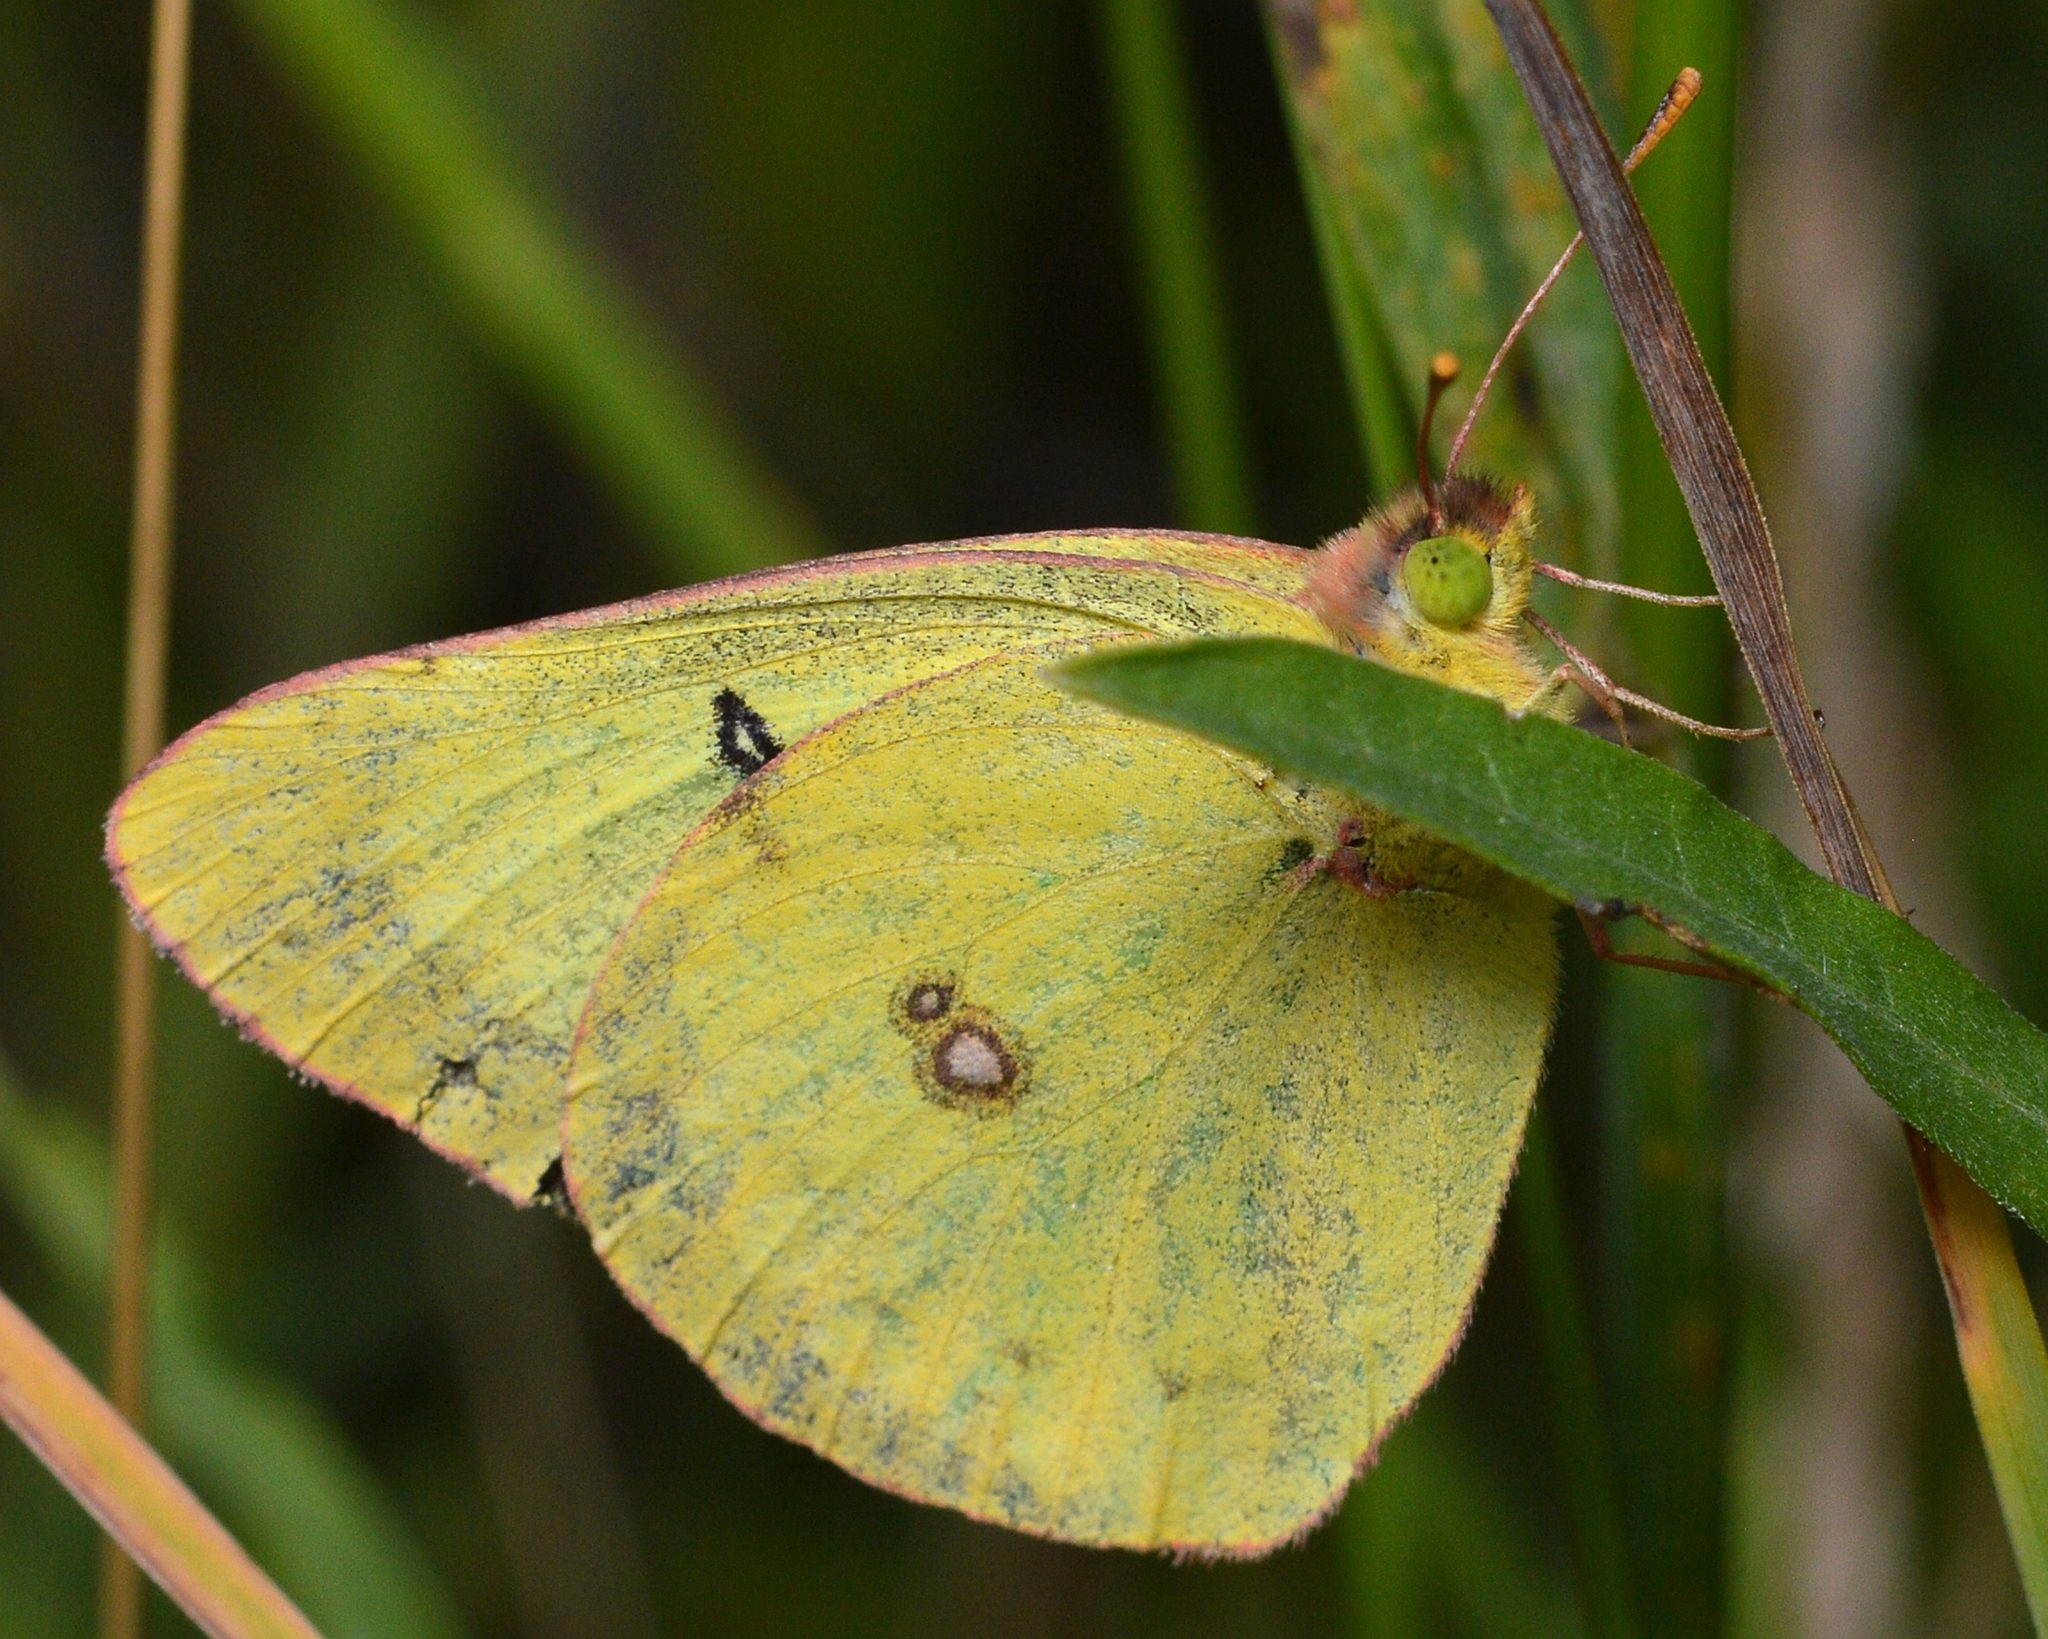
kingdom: Animalia
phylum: Arthropoda
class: Insecta
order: Lepidoptera
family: Pieridae
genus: Colias
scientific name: Colias philodice
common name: Clouded sulphur
